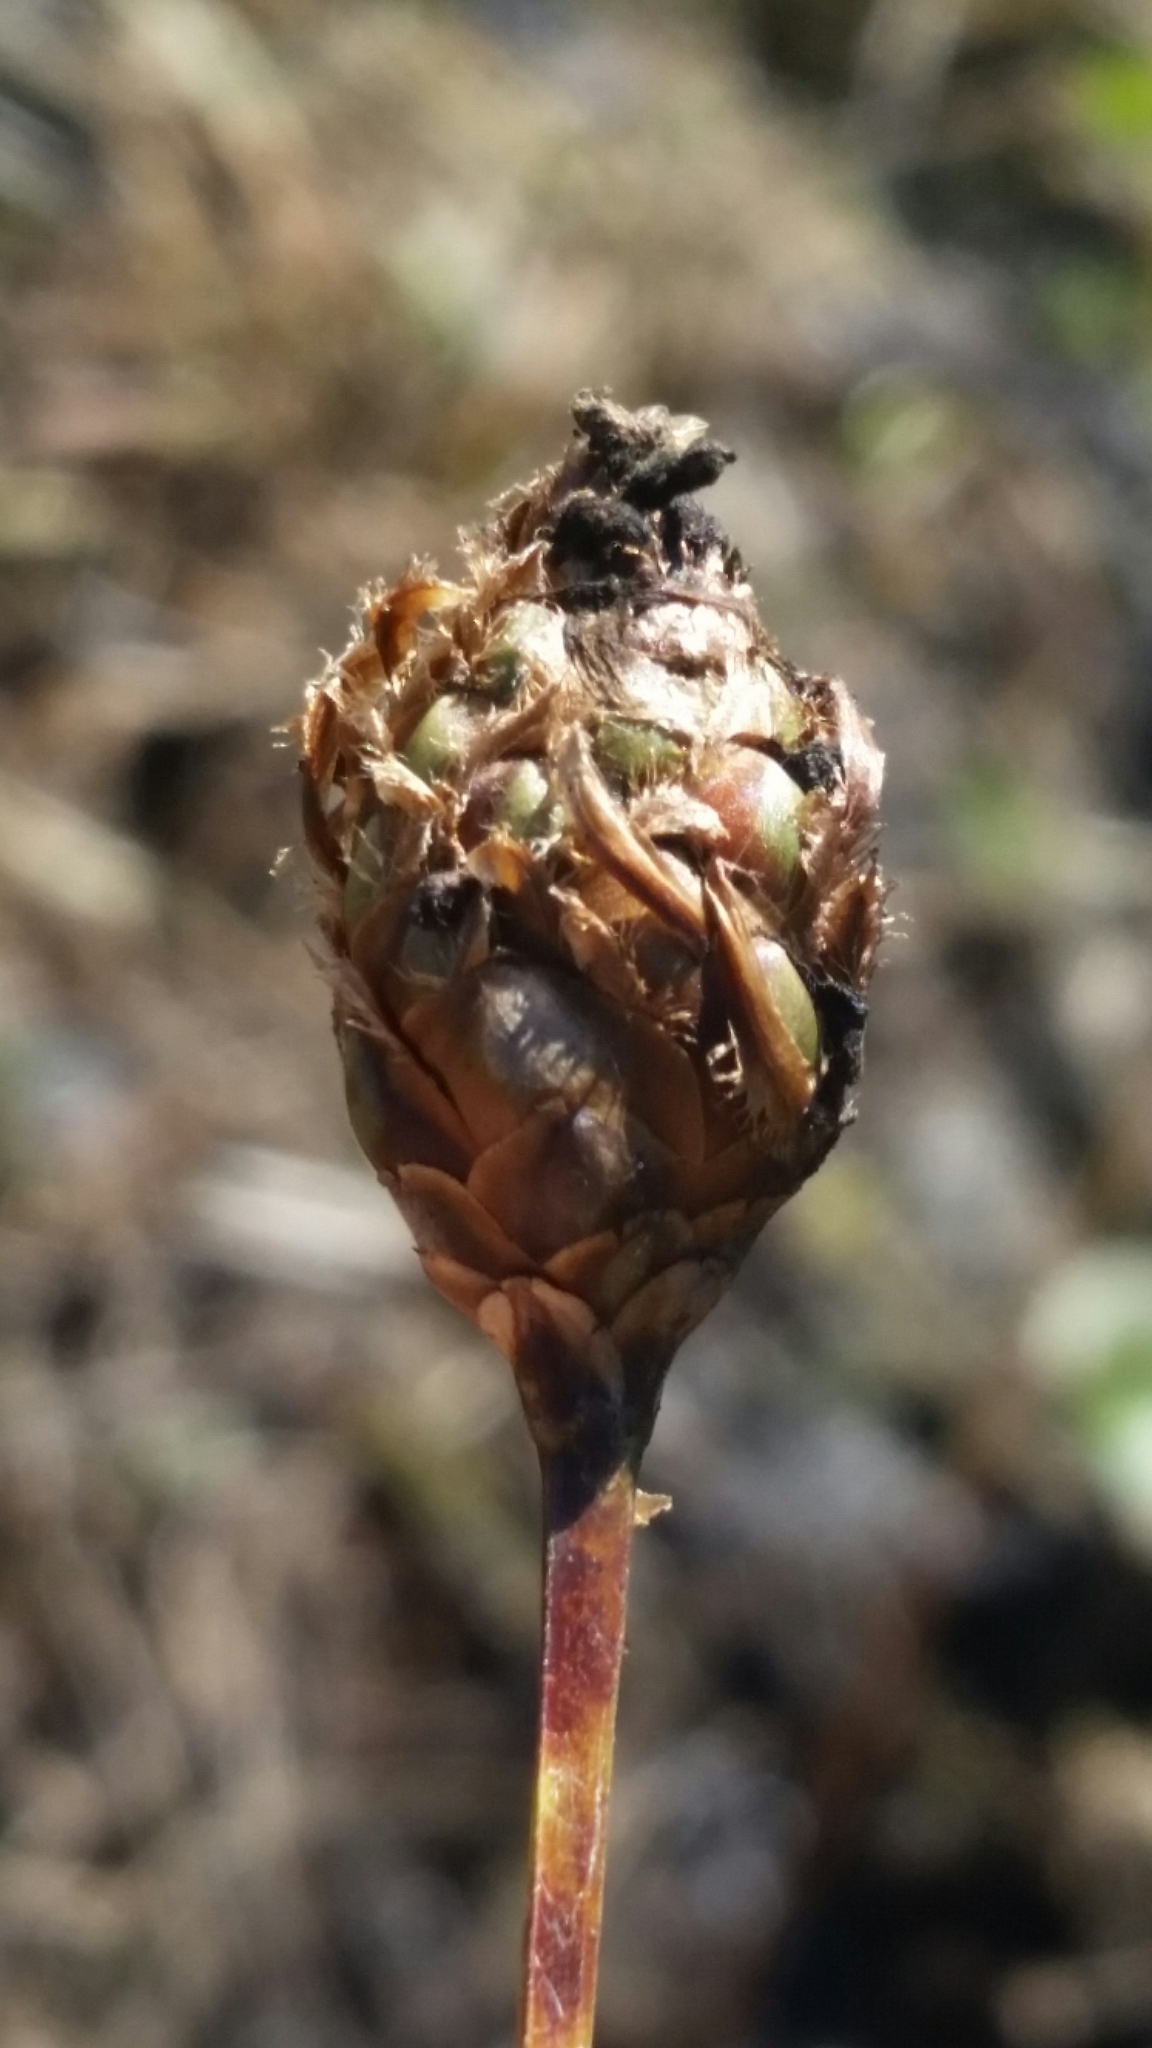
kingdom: Plantae
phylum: Tracheophyta
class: Liliopsida
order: Poales
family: Xyridaceae
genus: Xyris
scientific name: Xyris fimbriata
